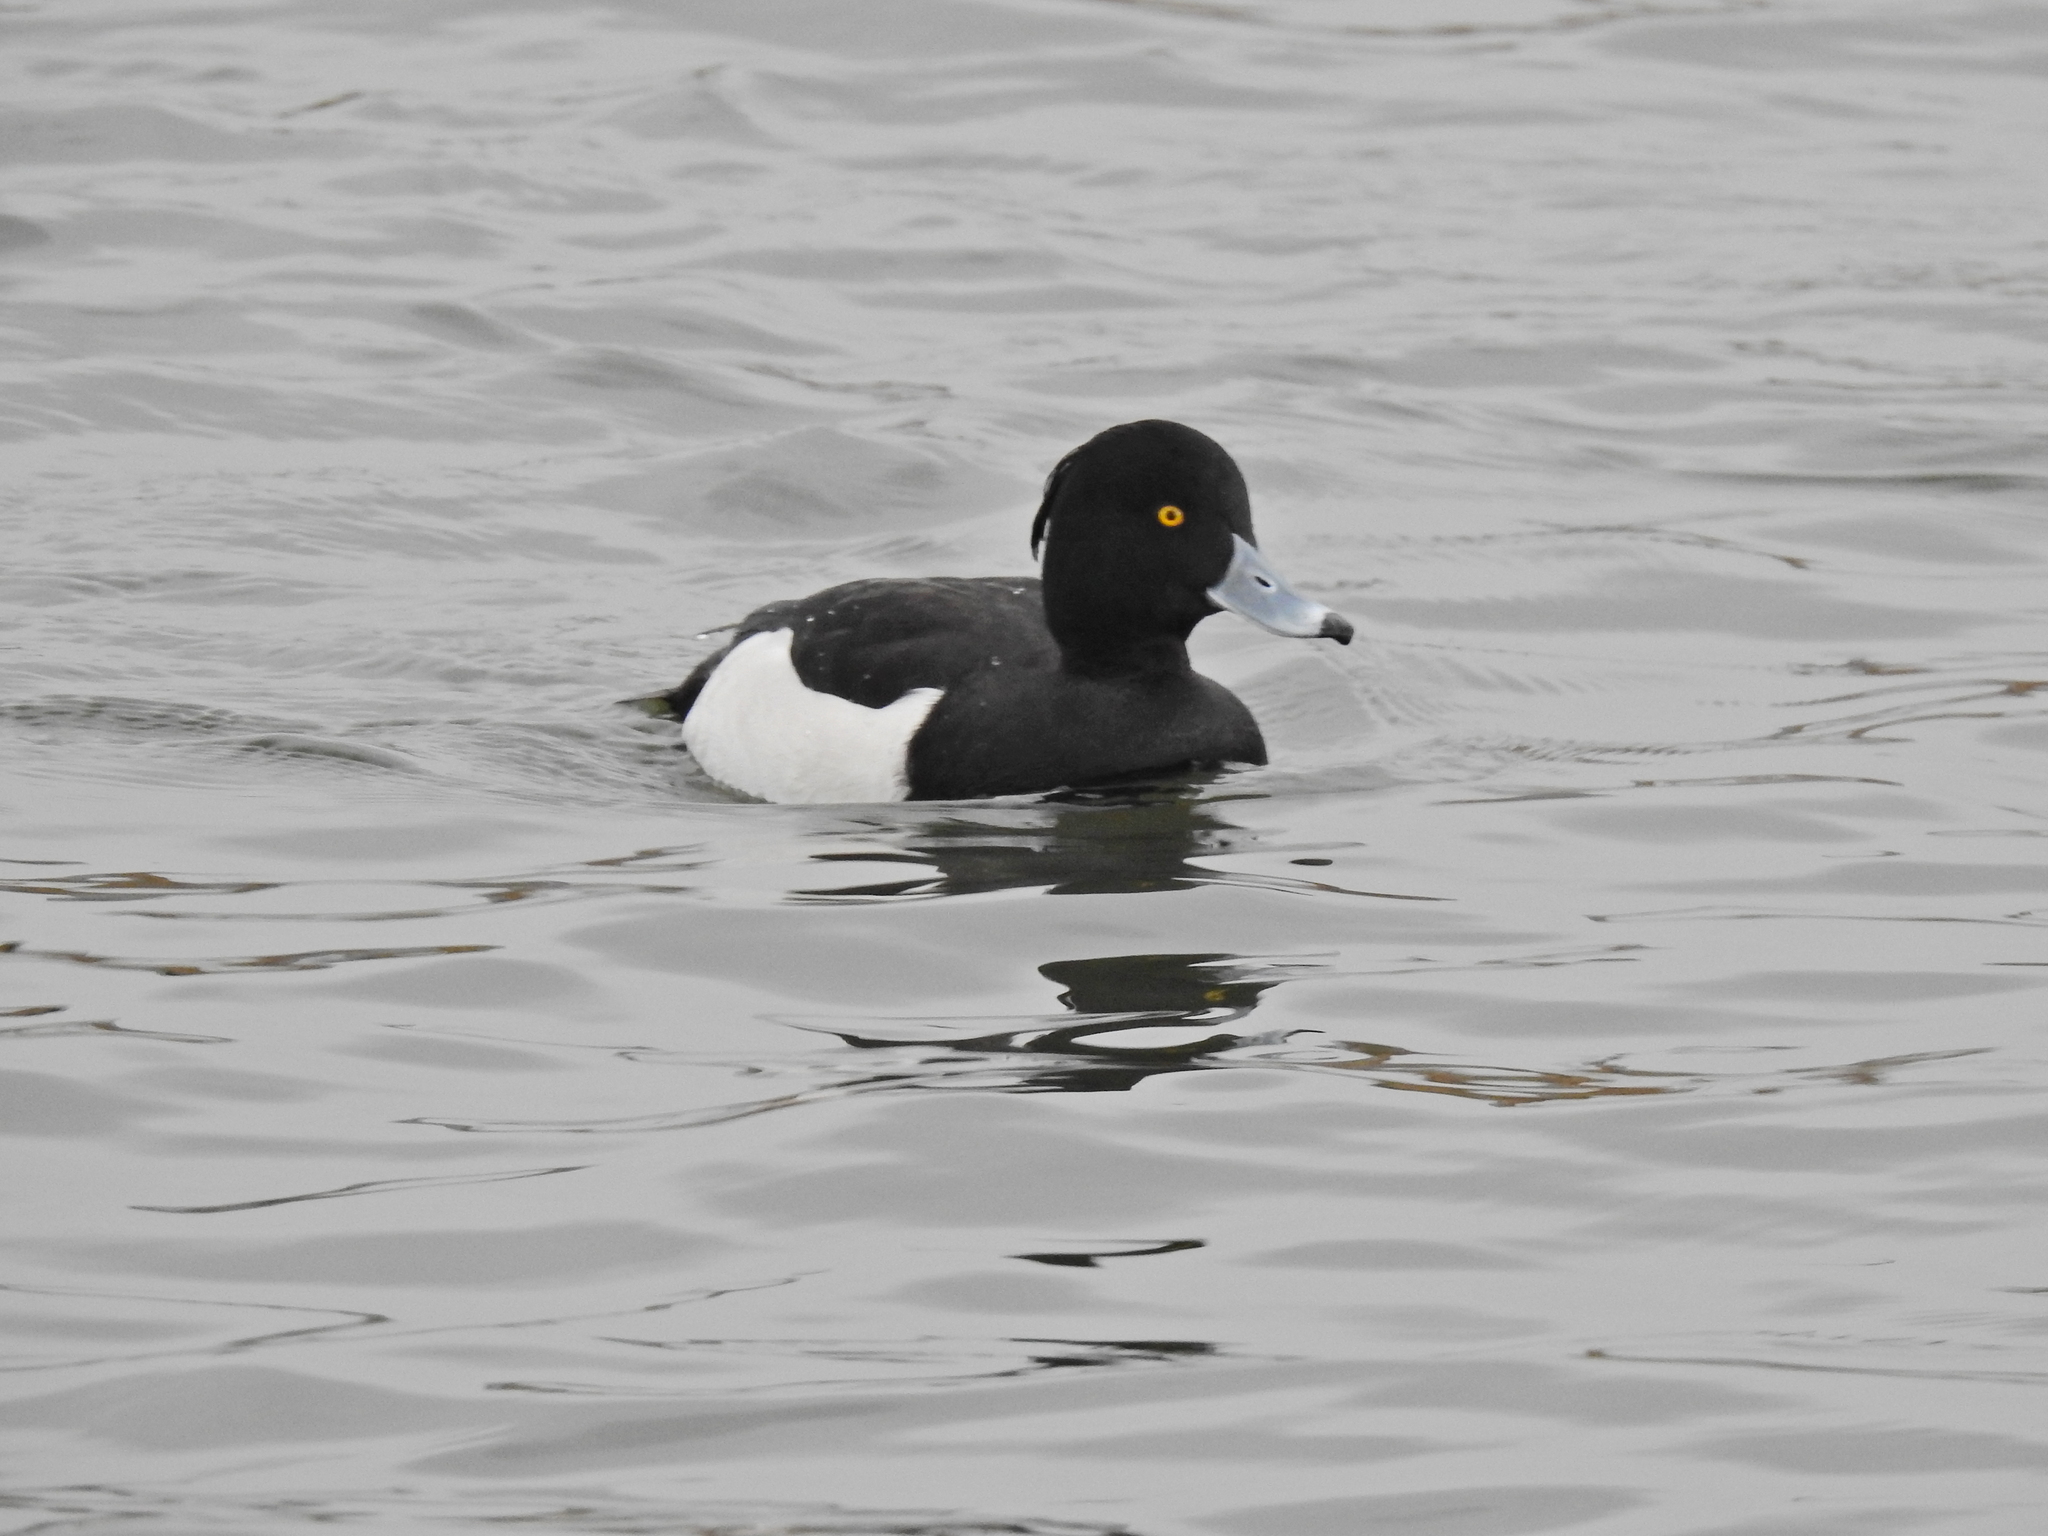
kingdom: Animalia
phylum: Chordata
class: Aves
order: Anseriformes
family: Anatidae
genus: Aythya
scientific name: Aythya fuligula
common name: Tufted duck
